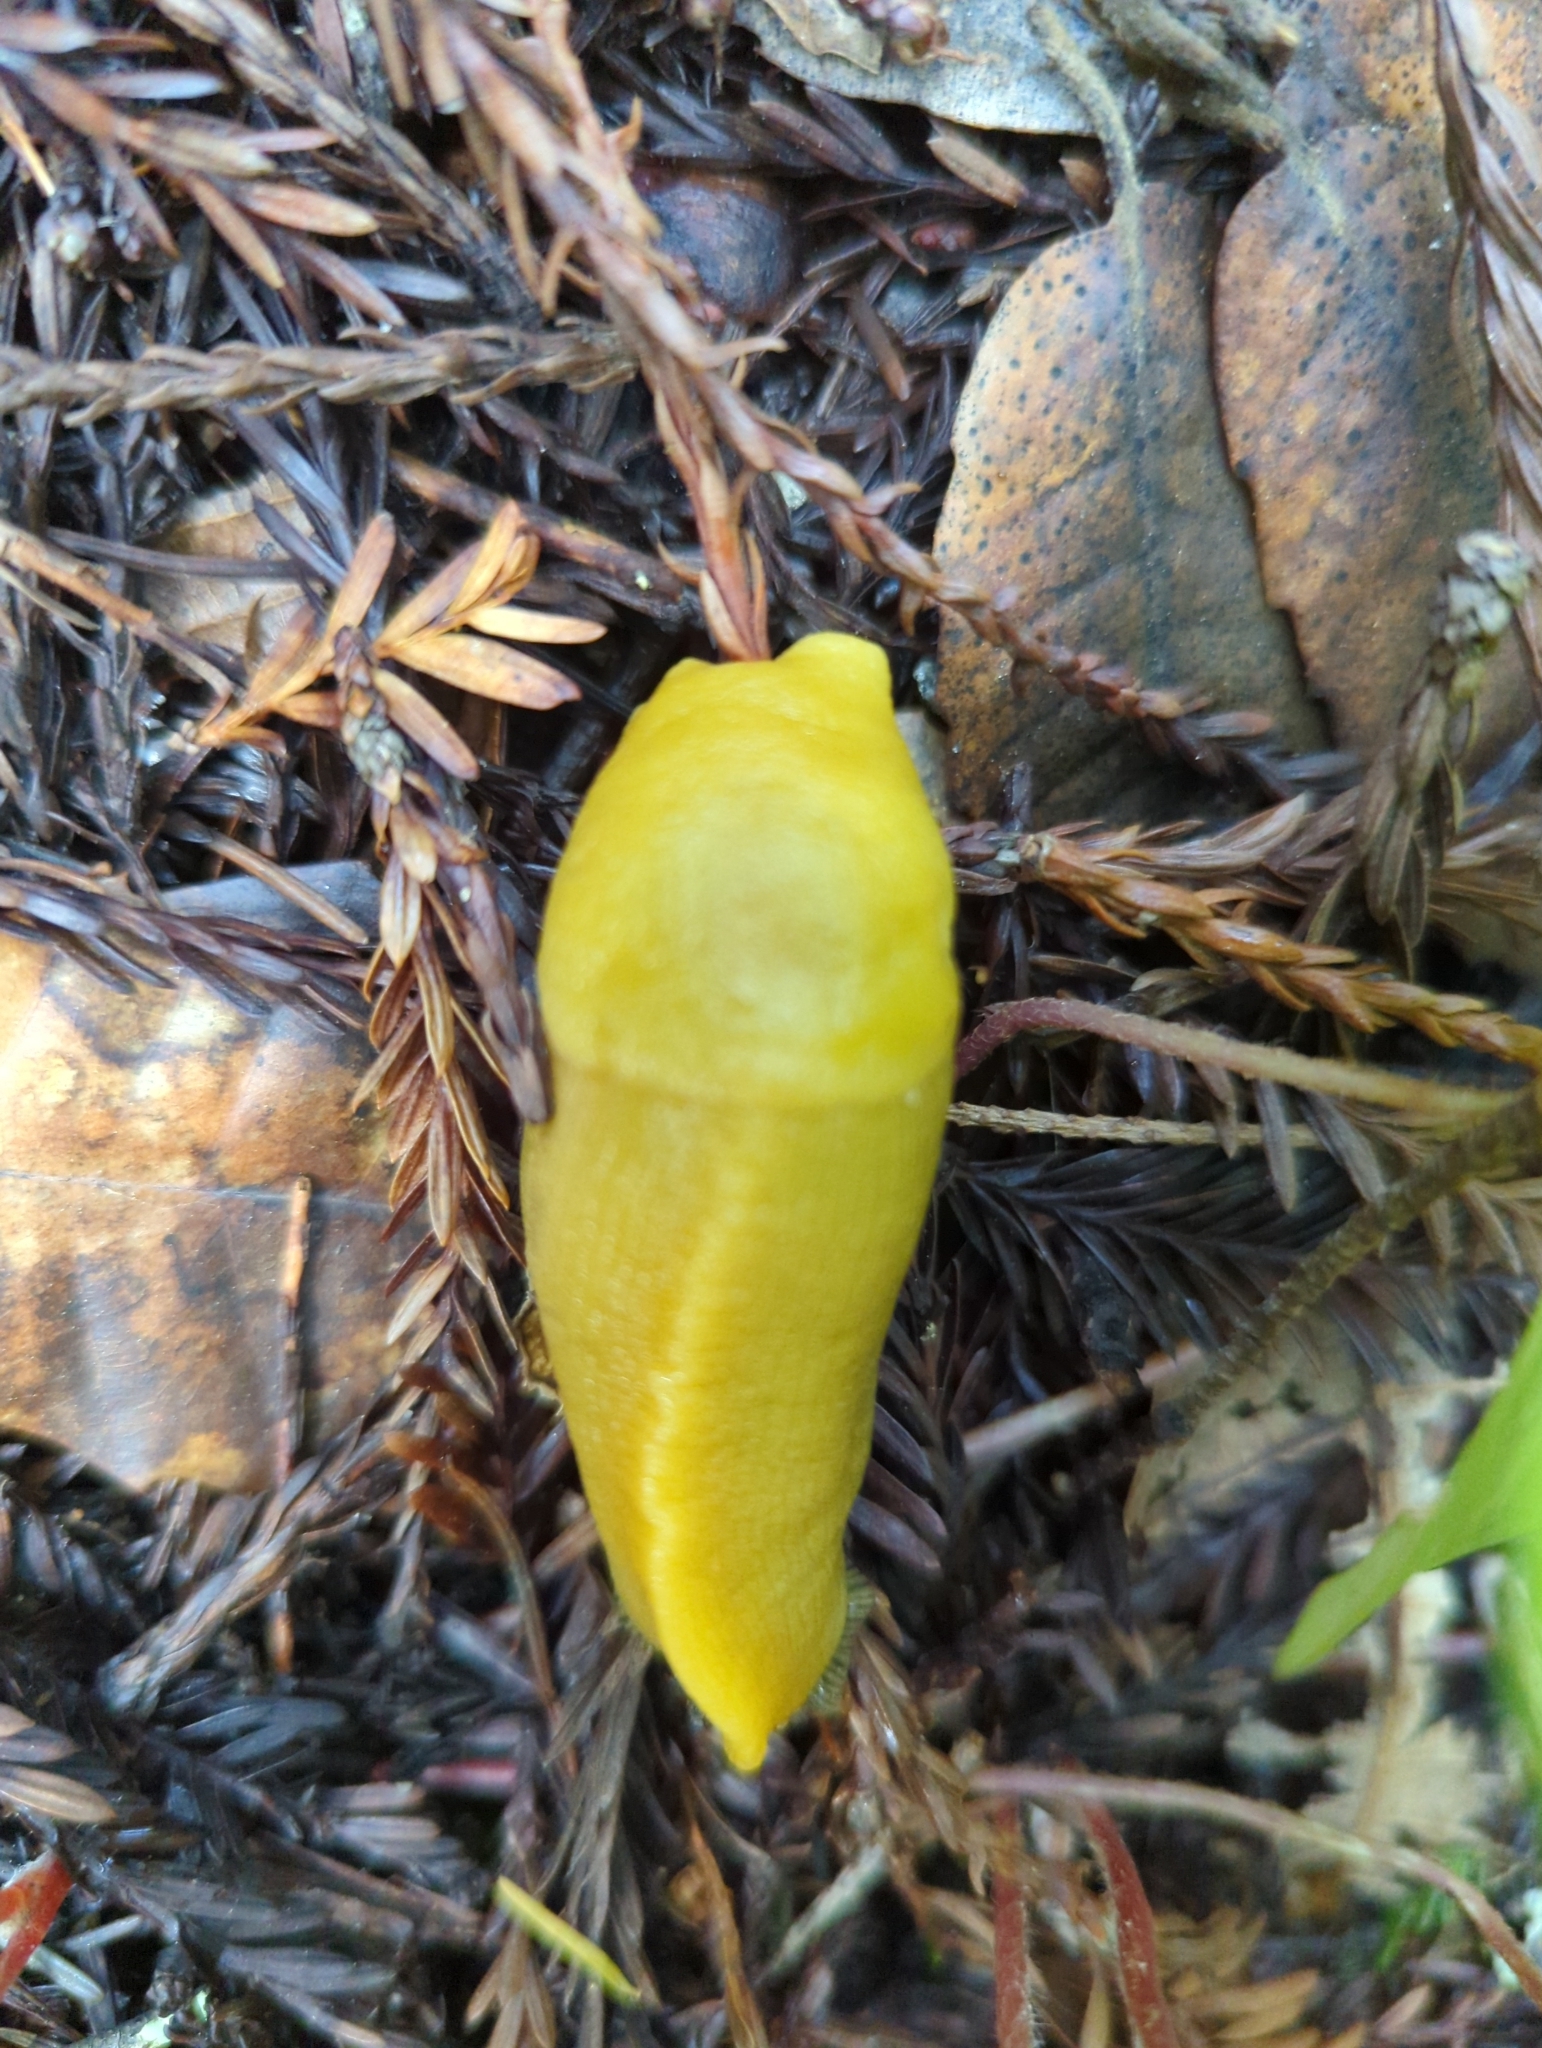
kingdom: Animalia
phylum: Mollusca
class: Gastropoda
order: Stylommatophora
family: Ariolimacidae
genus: Ariolimax
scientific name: Ariolimax dolichophallus
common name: Slender banana slug
